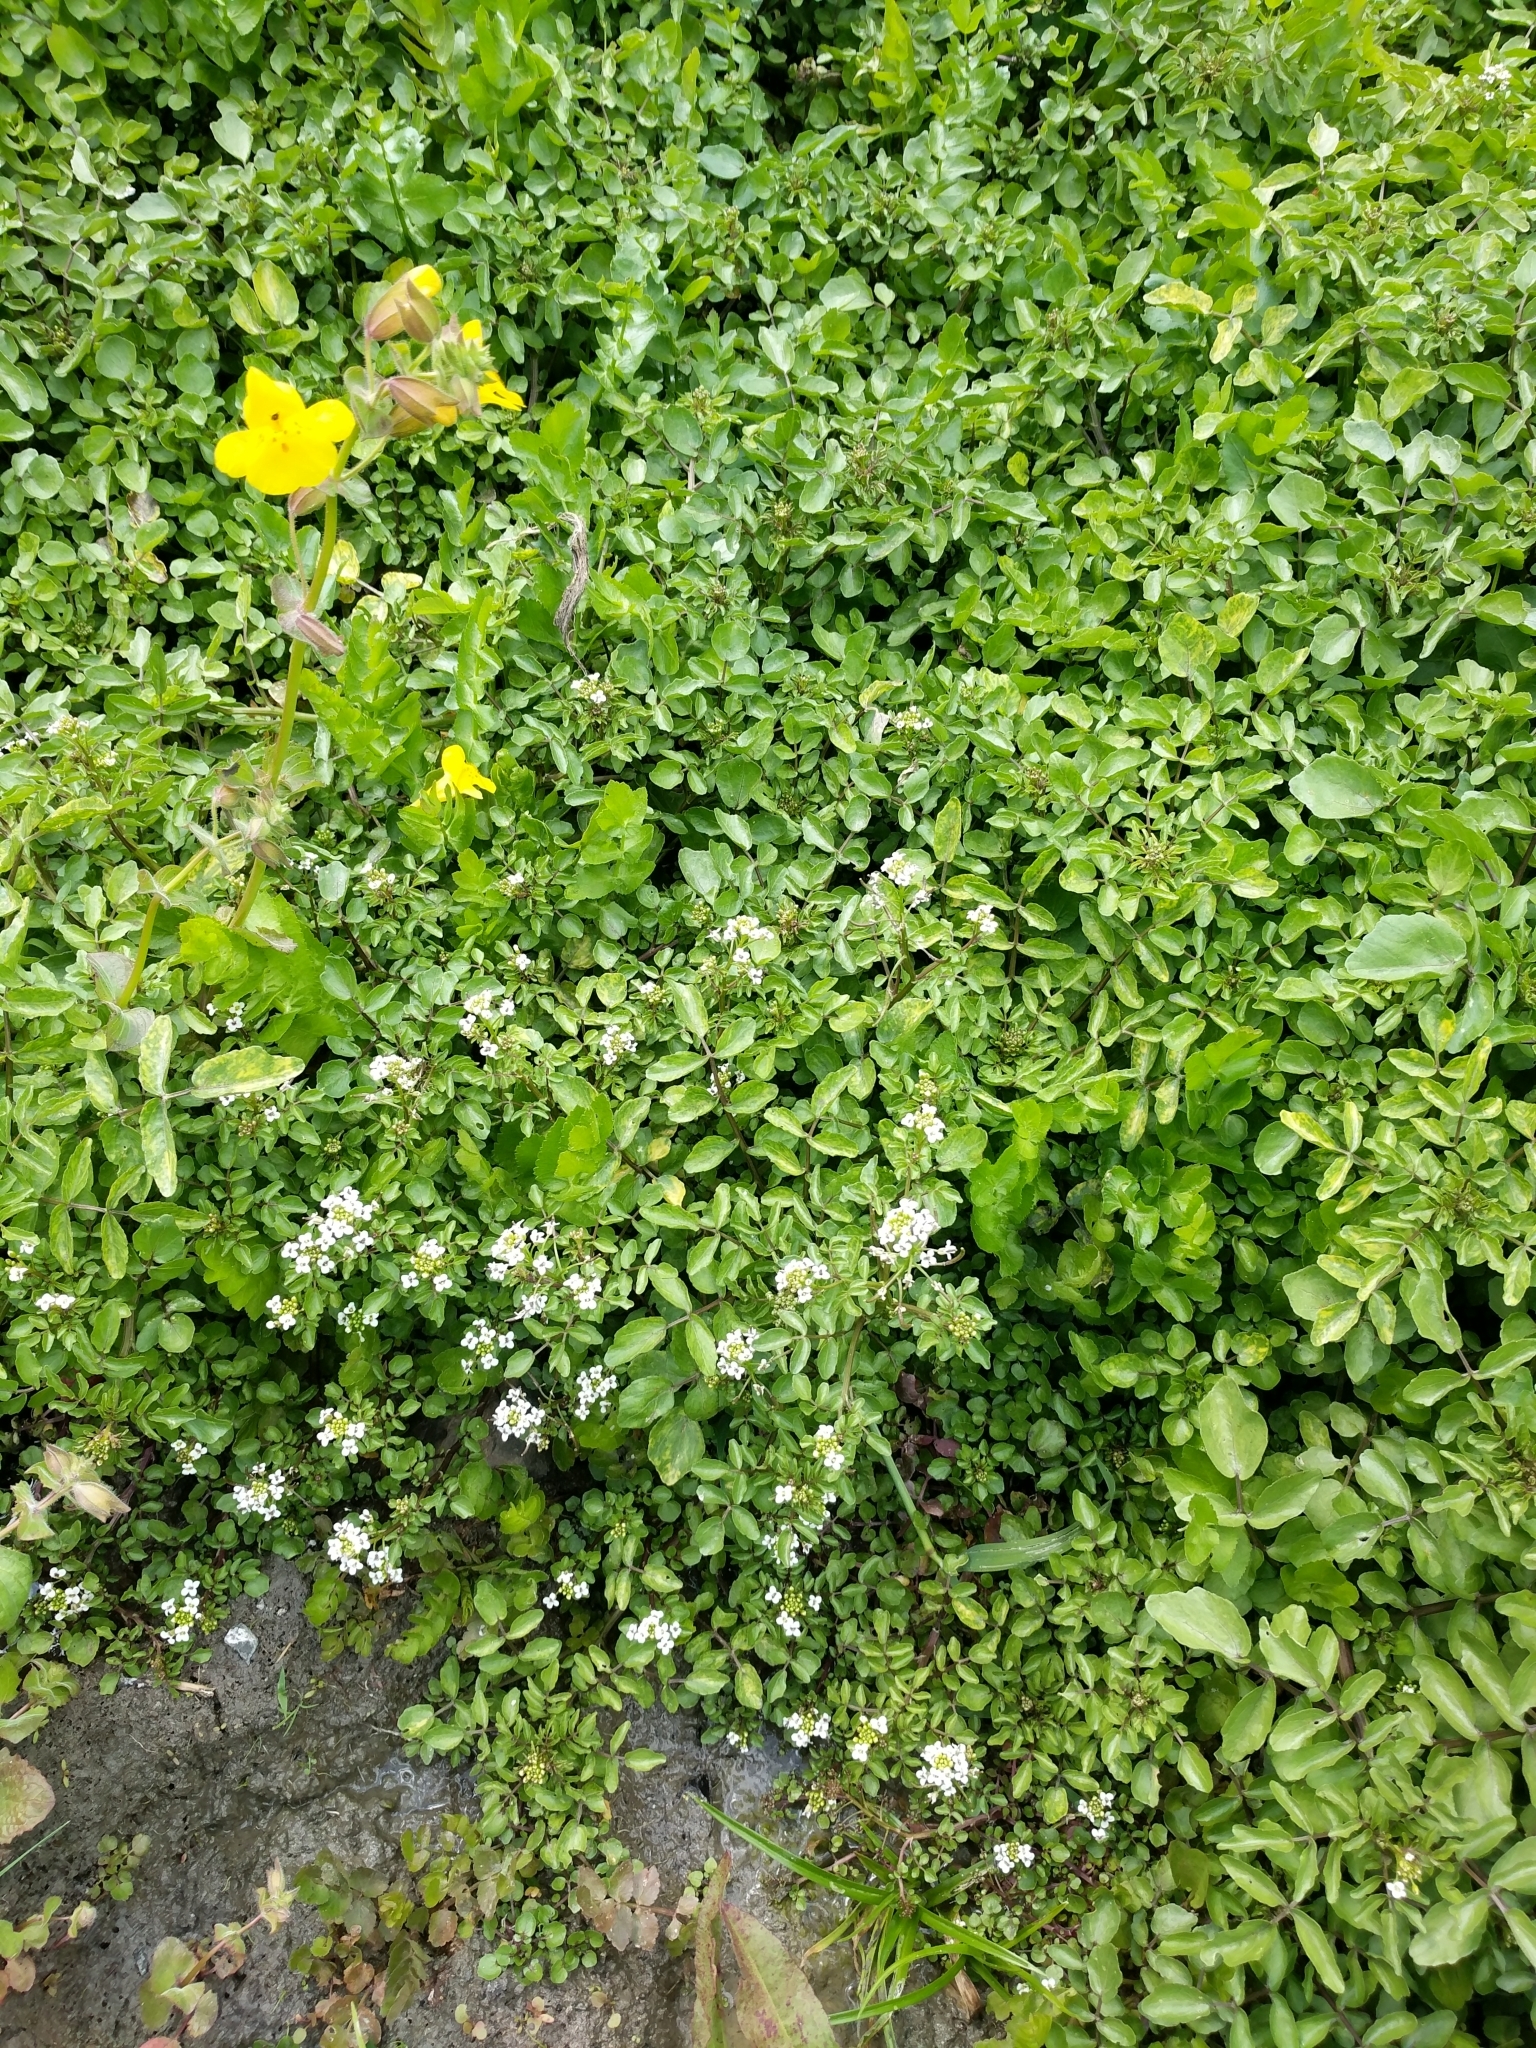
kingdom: Plantae
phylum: Tracheophyta
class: Magnoliopsida
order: Brassicales
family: Brassicaceae
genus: Nasturtium
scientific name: Nasturtium officinale
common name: Watercress
